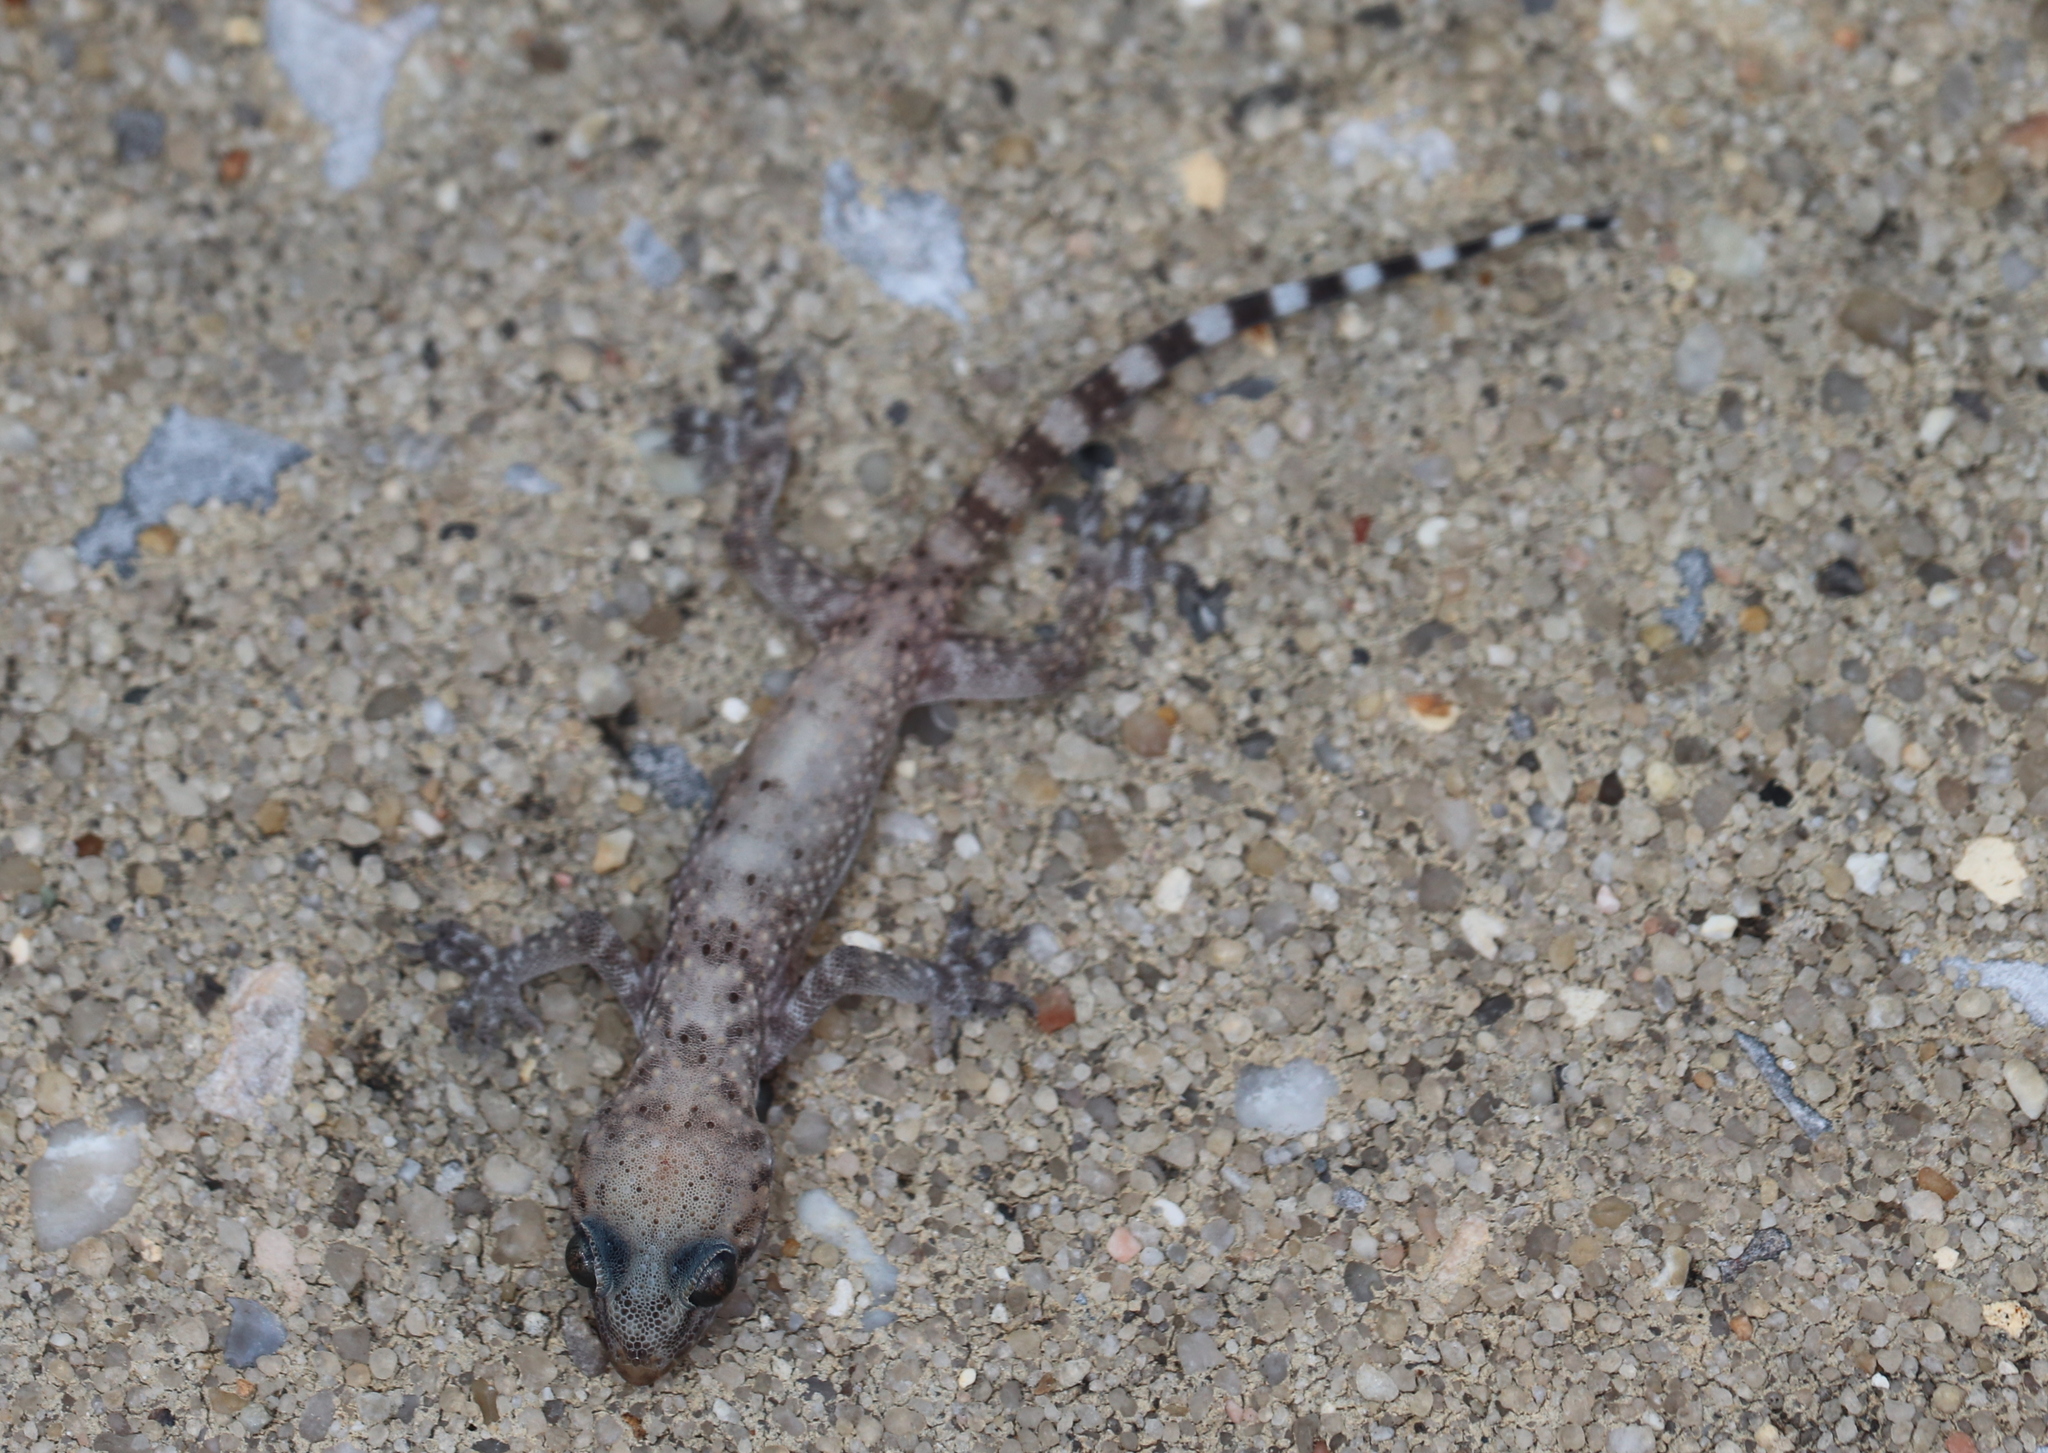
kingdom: Animalia
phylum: Chordata
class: Squamata
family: Gekkonidae
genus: Hemidactylus
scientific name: Hemidactylus turcicus
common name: Turkish gecko
